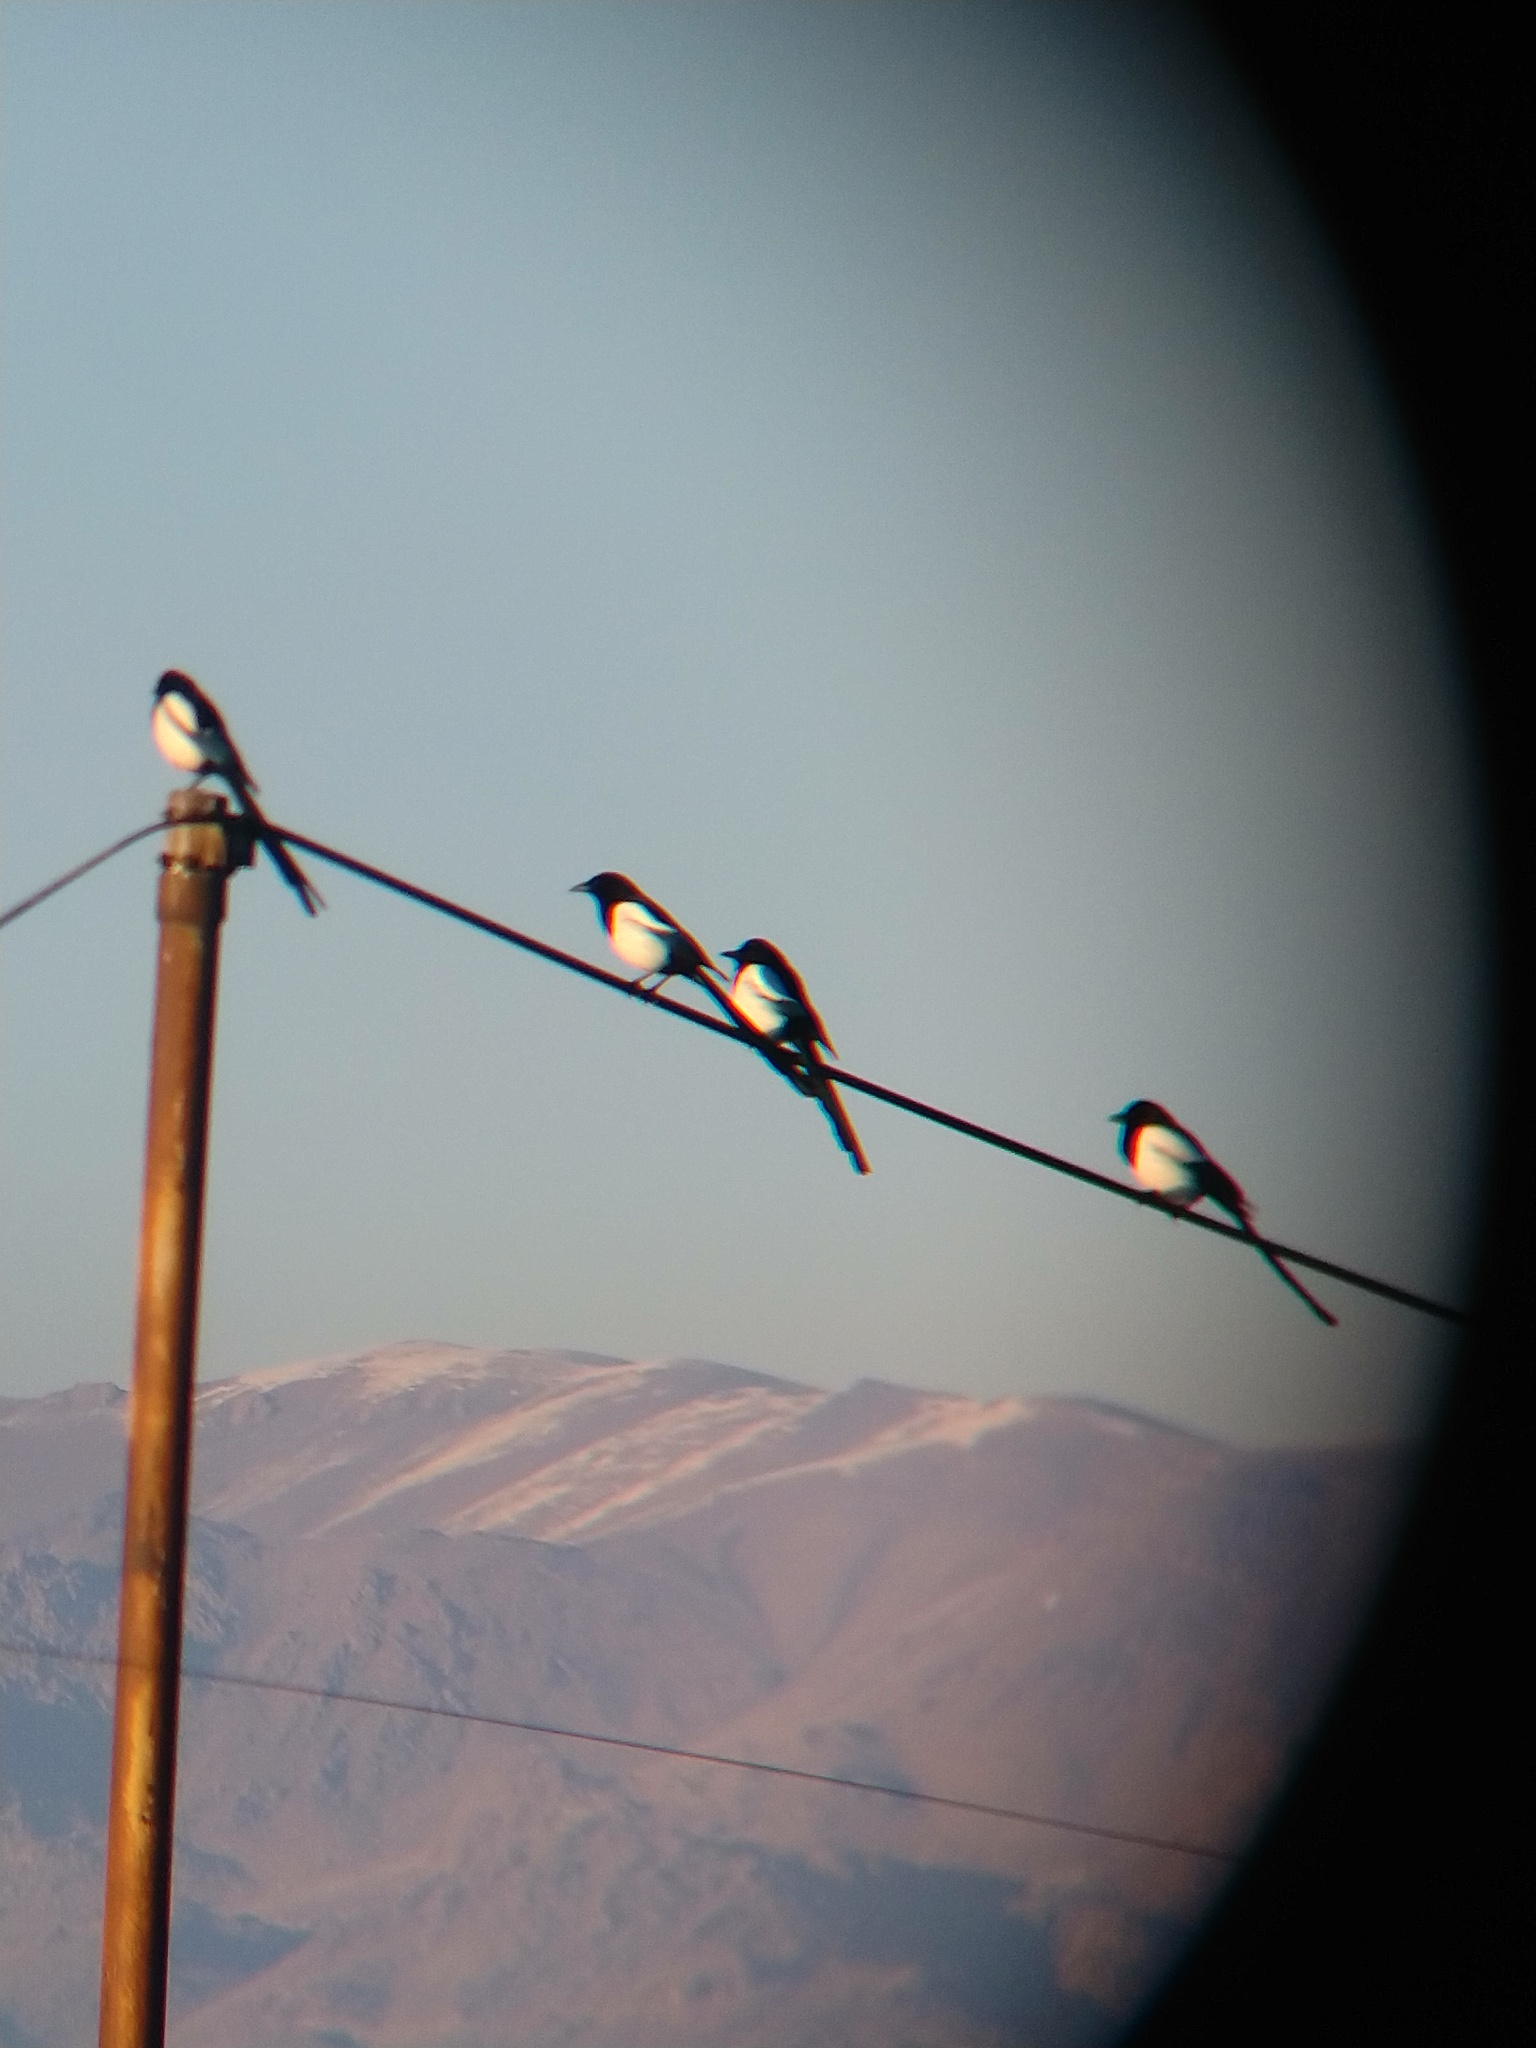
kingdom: Animalia
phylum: Chordata
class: Aves
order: Passeriformes
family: Corvidae
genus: Pica
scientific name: Pica pica
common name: Eurasian magpie
